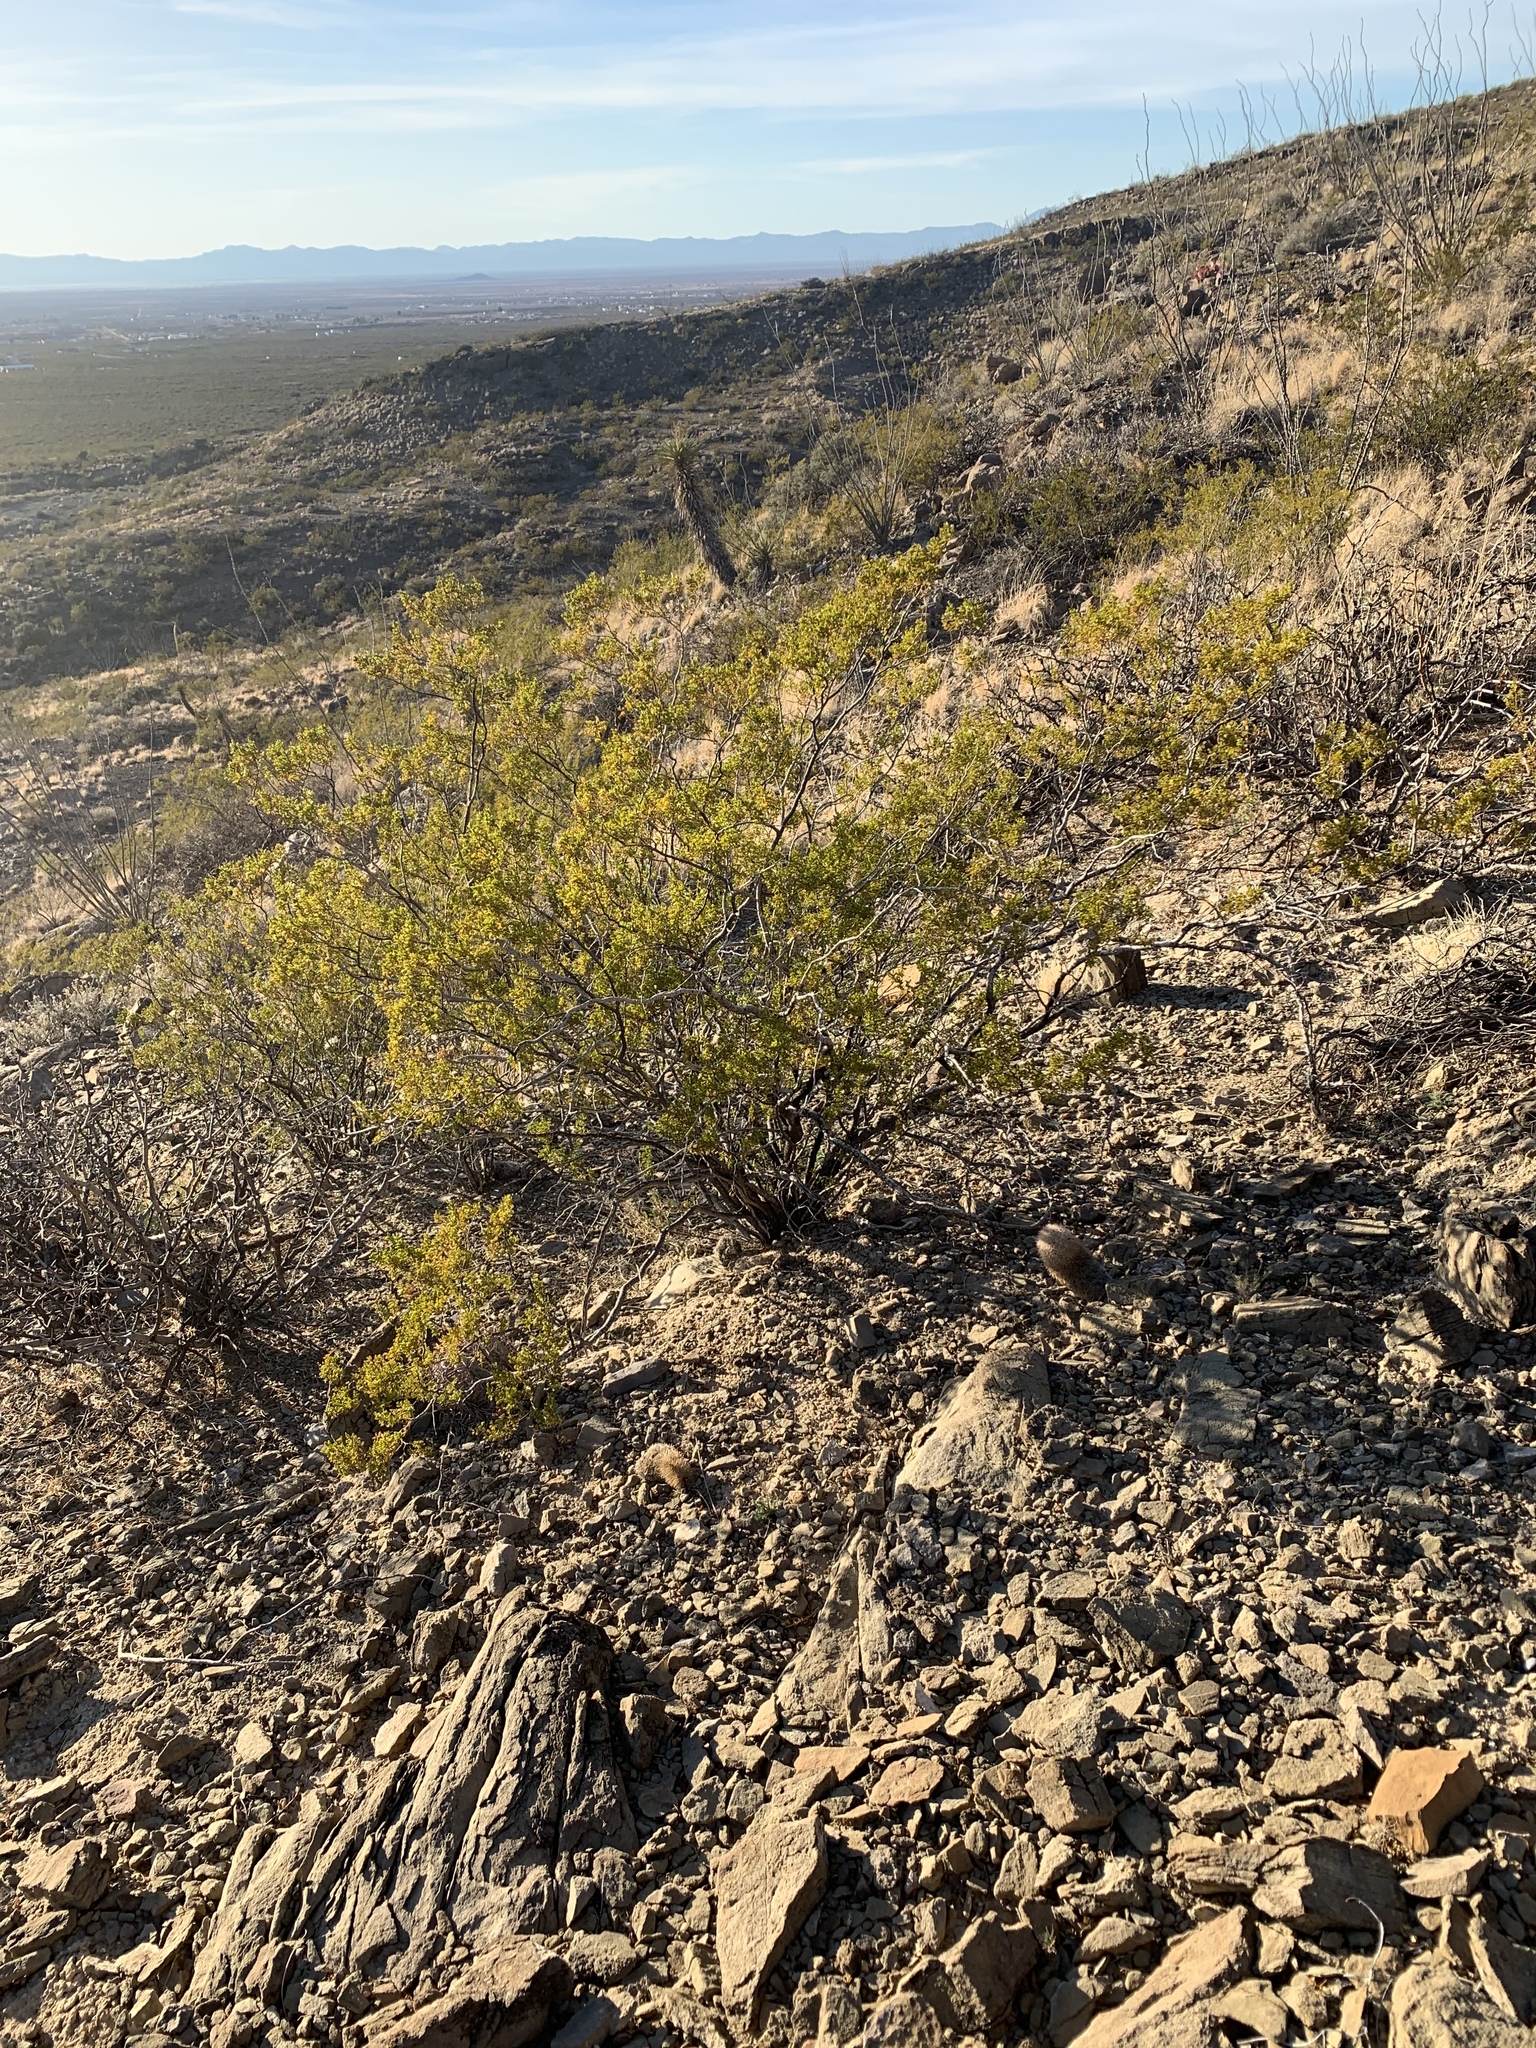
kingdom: Plantae
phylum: Tracheophyta
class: Magnoliopsida
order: Zygophyllales
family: Zygophyllaceae
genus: Larrea
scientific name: Larrea tridentata
